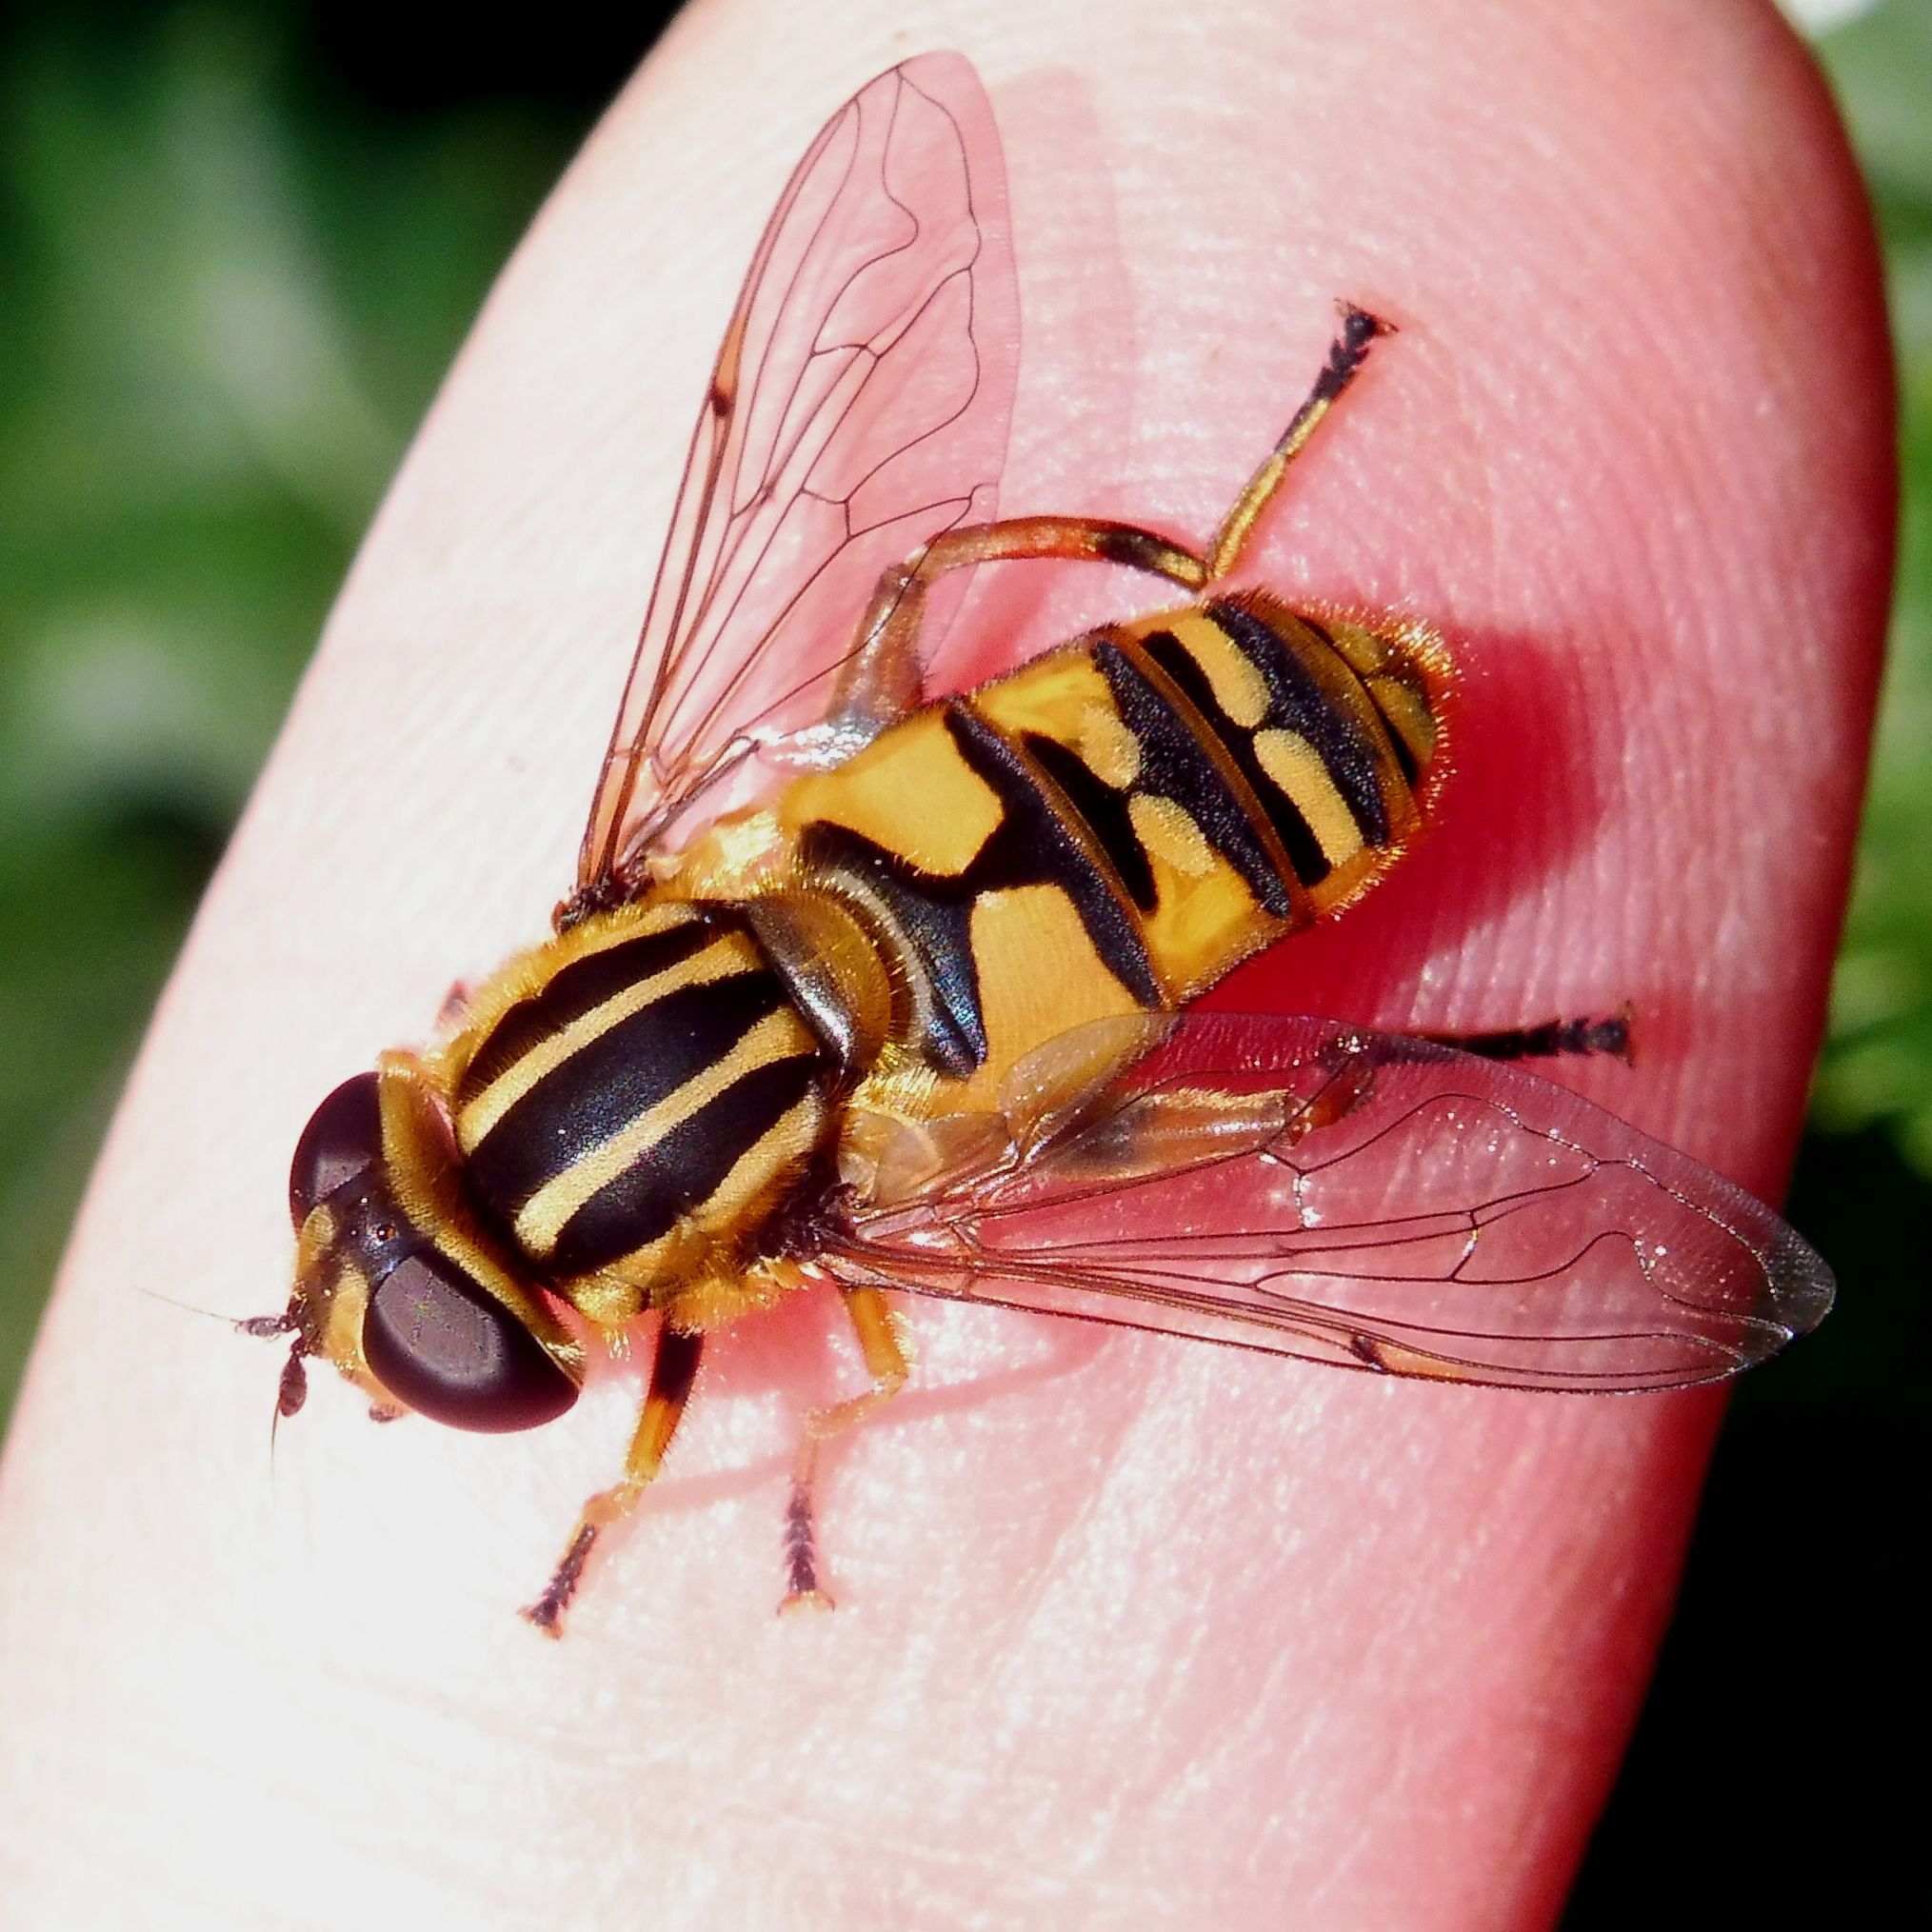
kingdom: Animalia
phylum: Arthropoda
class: Insecta
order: Diptera
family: Syrphidae
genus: Helophilus
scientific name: Helophilus pendulus
